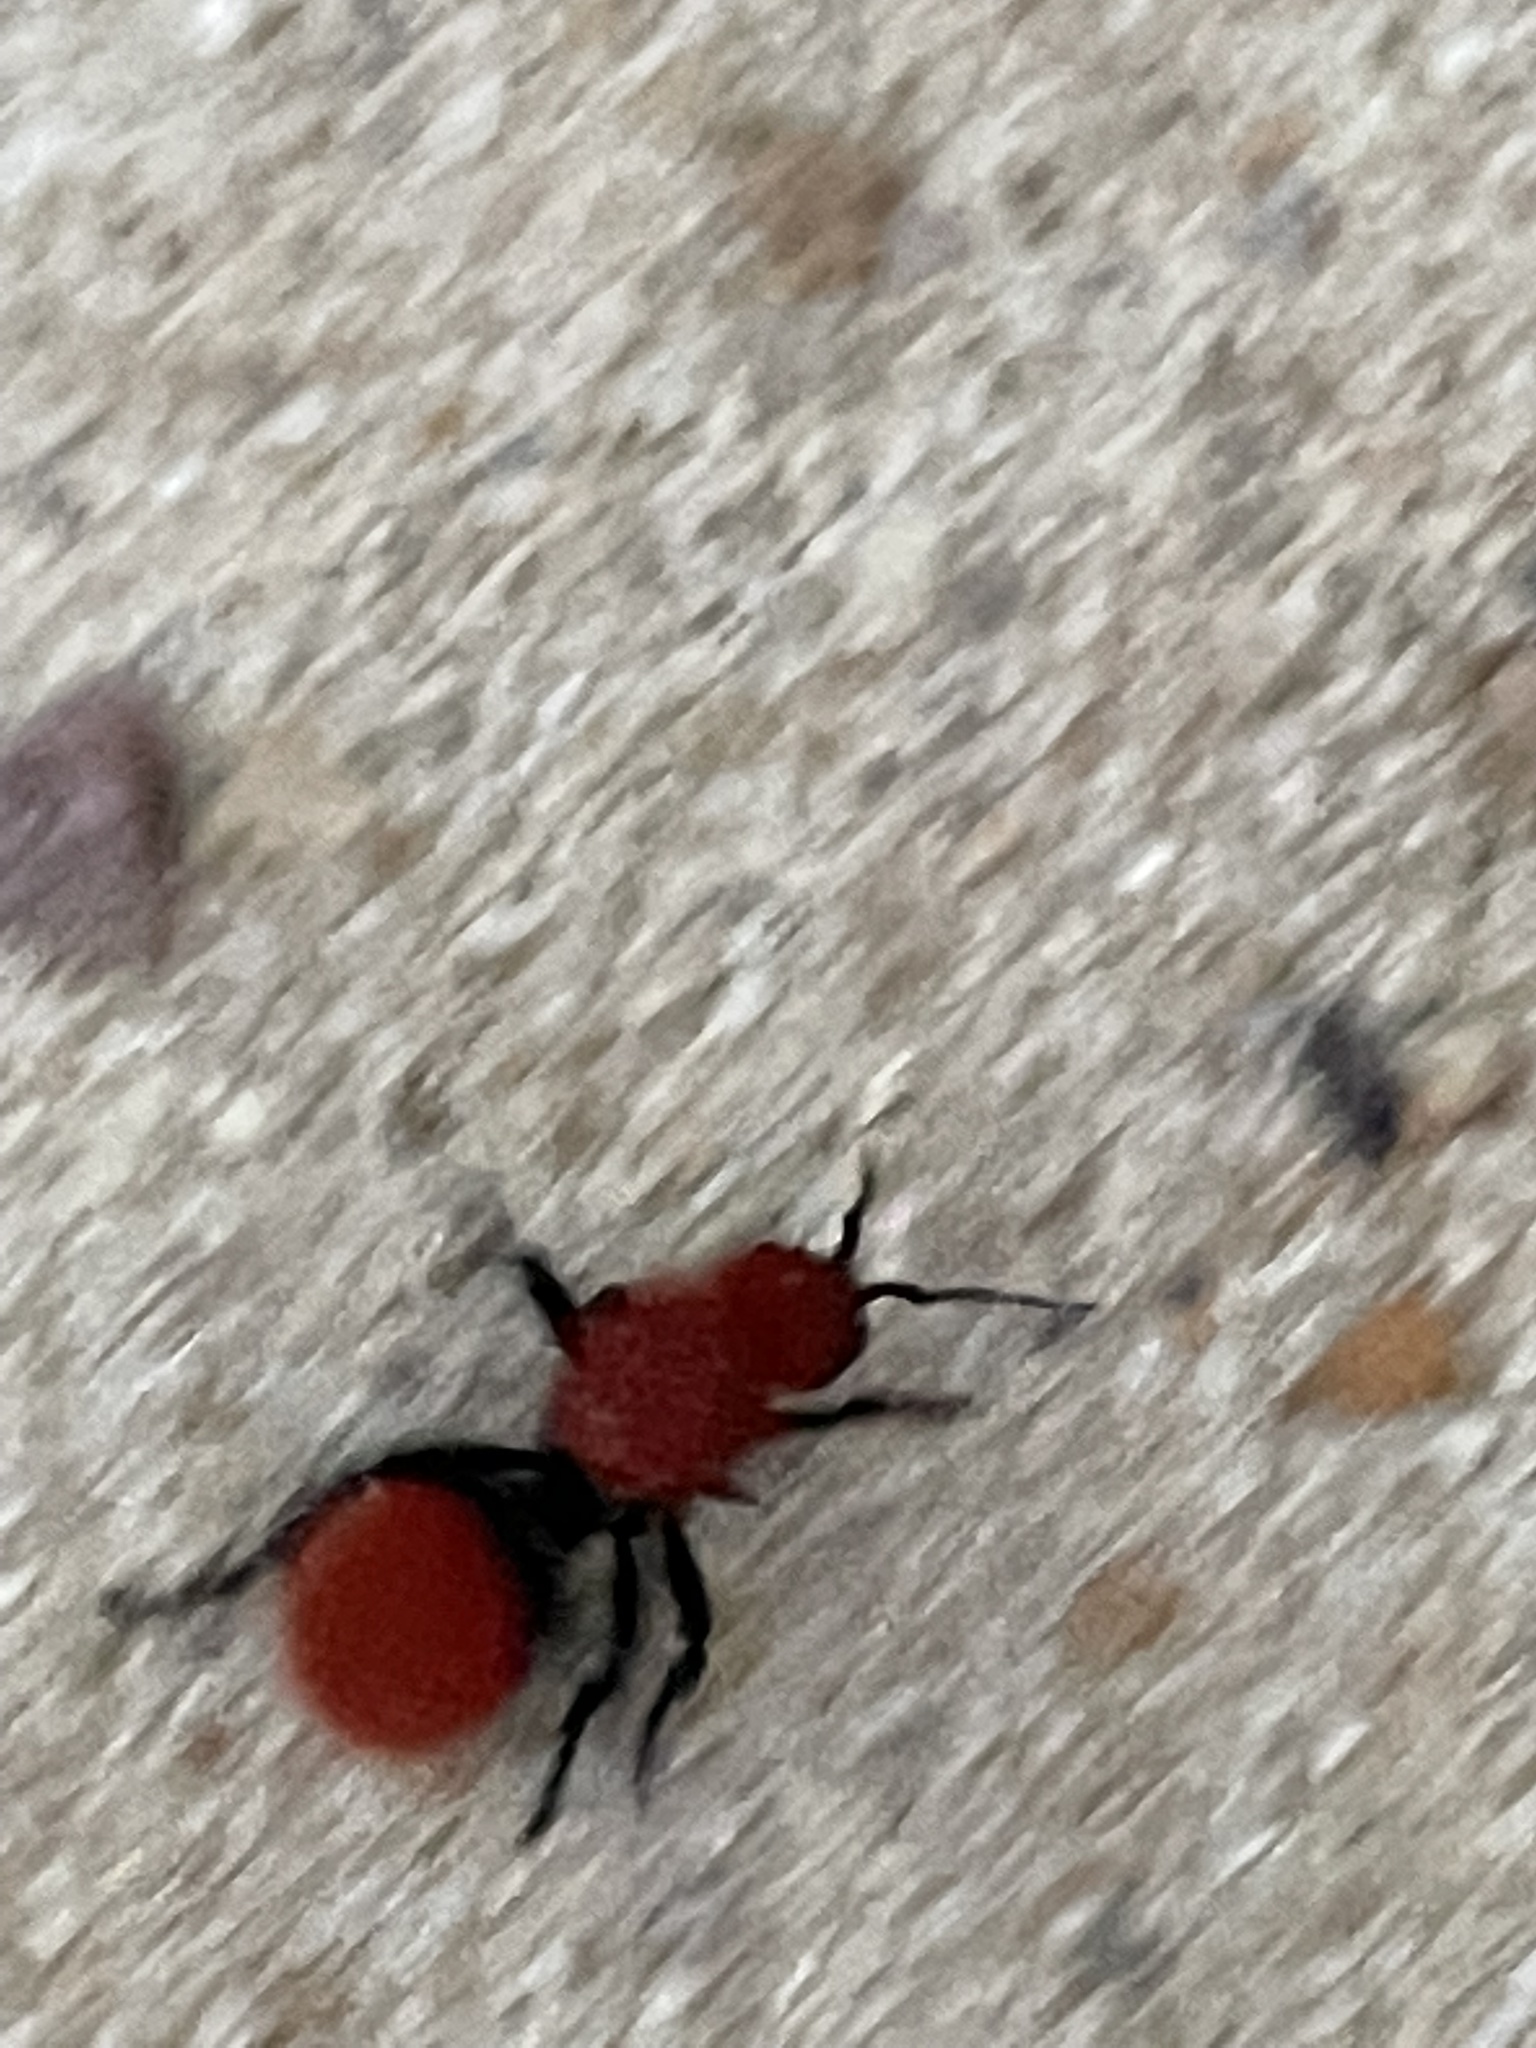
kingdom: Animalia
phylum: Arthropoda
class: Insecta
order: Hymenoptera
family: Mutillidae
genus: Dasymutilla
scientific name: Dasymutilla vestita
